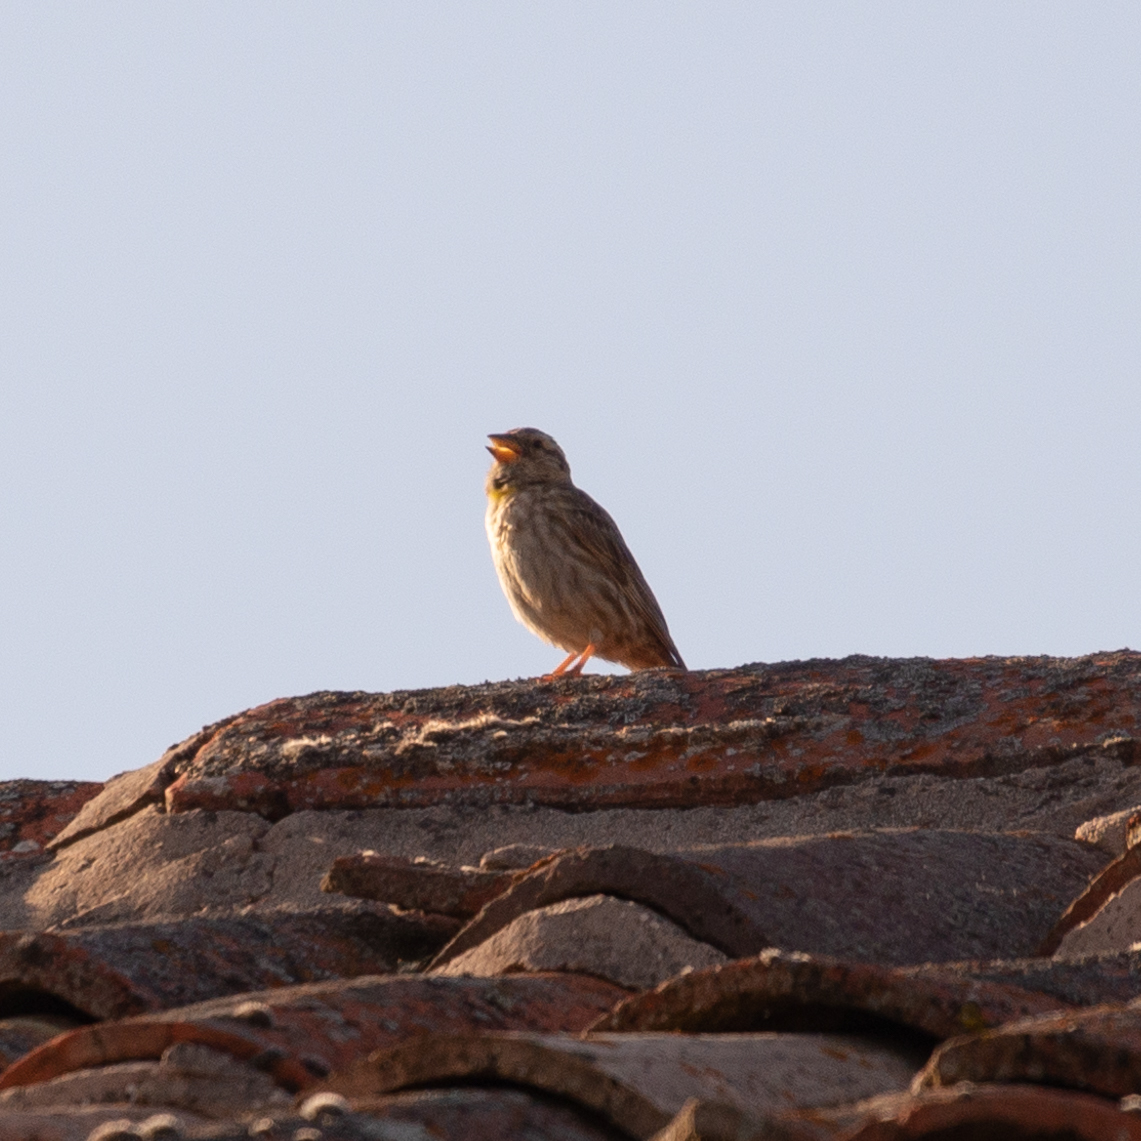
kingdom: Animalia
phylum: Chordata
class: Aves
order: Passeriformes
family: Passeridae
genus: Petronia
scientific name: Petronia petronia
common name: Rock sparrow
